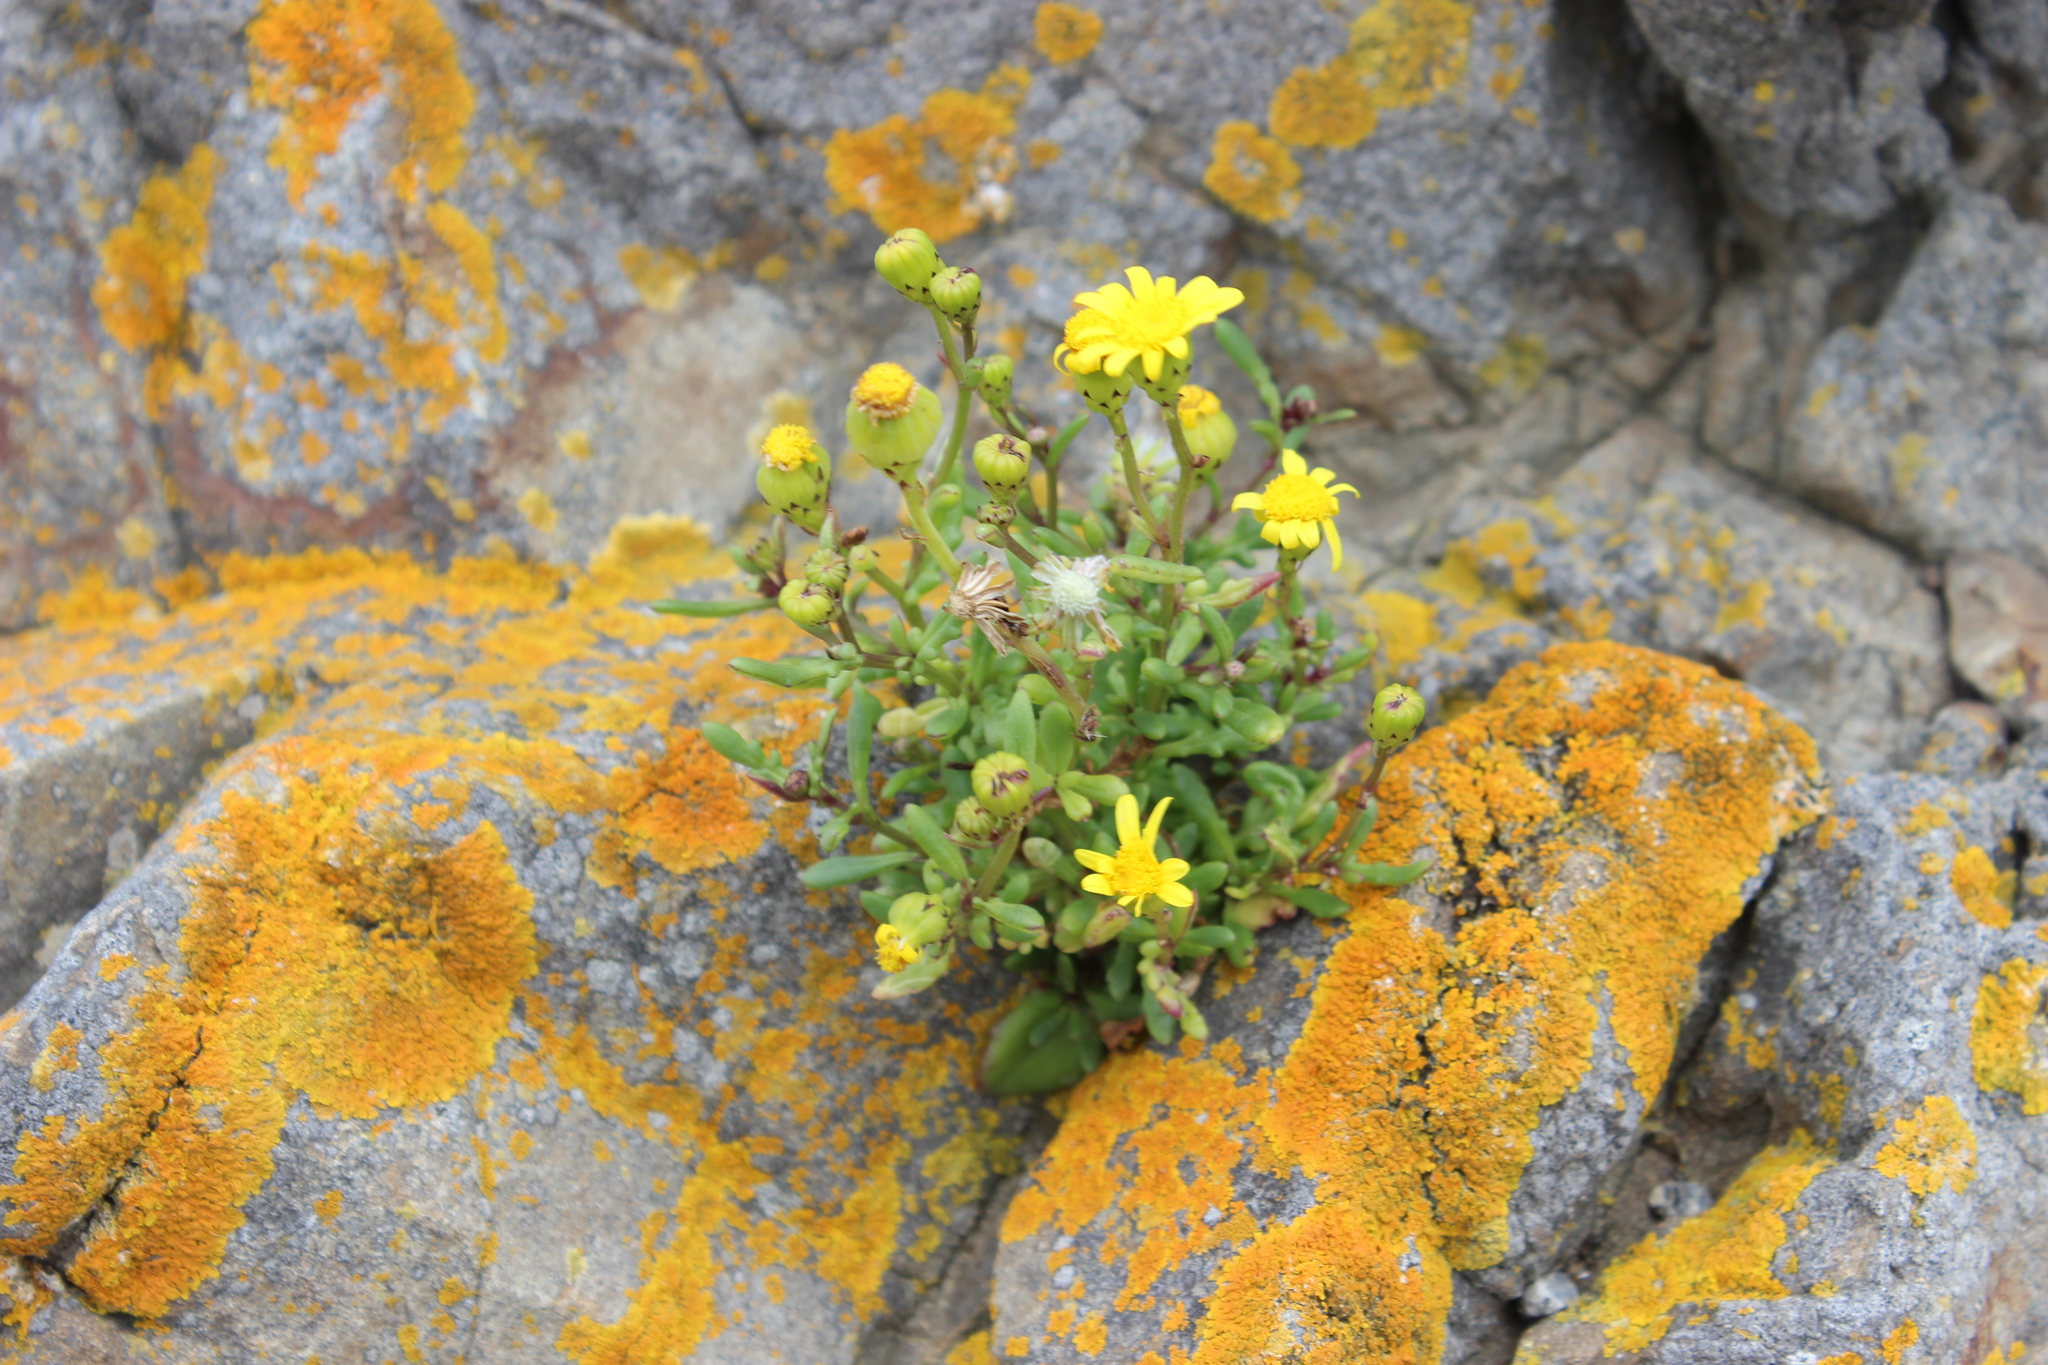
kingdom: Plantae
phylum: Tracheophyta
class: Magnoliopsida
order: Asterales
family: Asteraceae
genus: Senecio
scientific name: Senecio lautus
